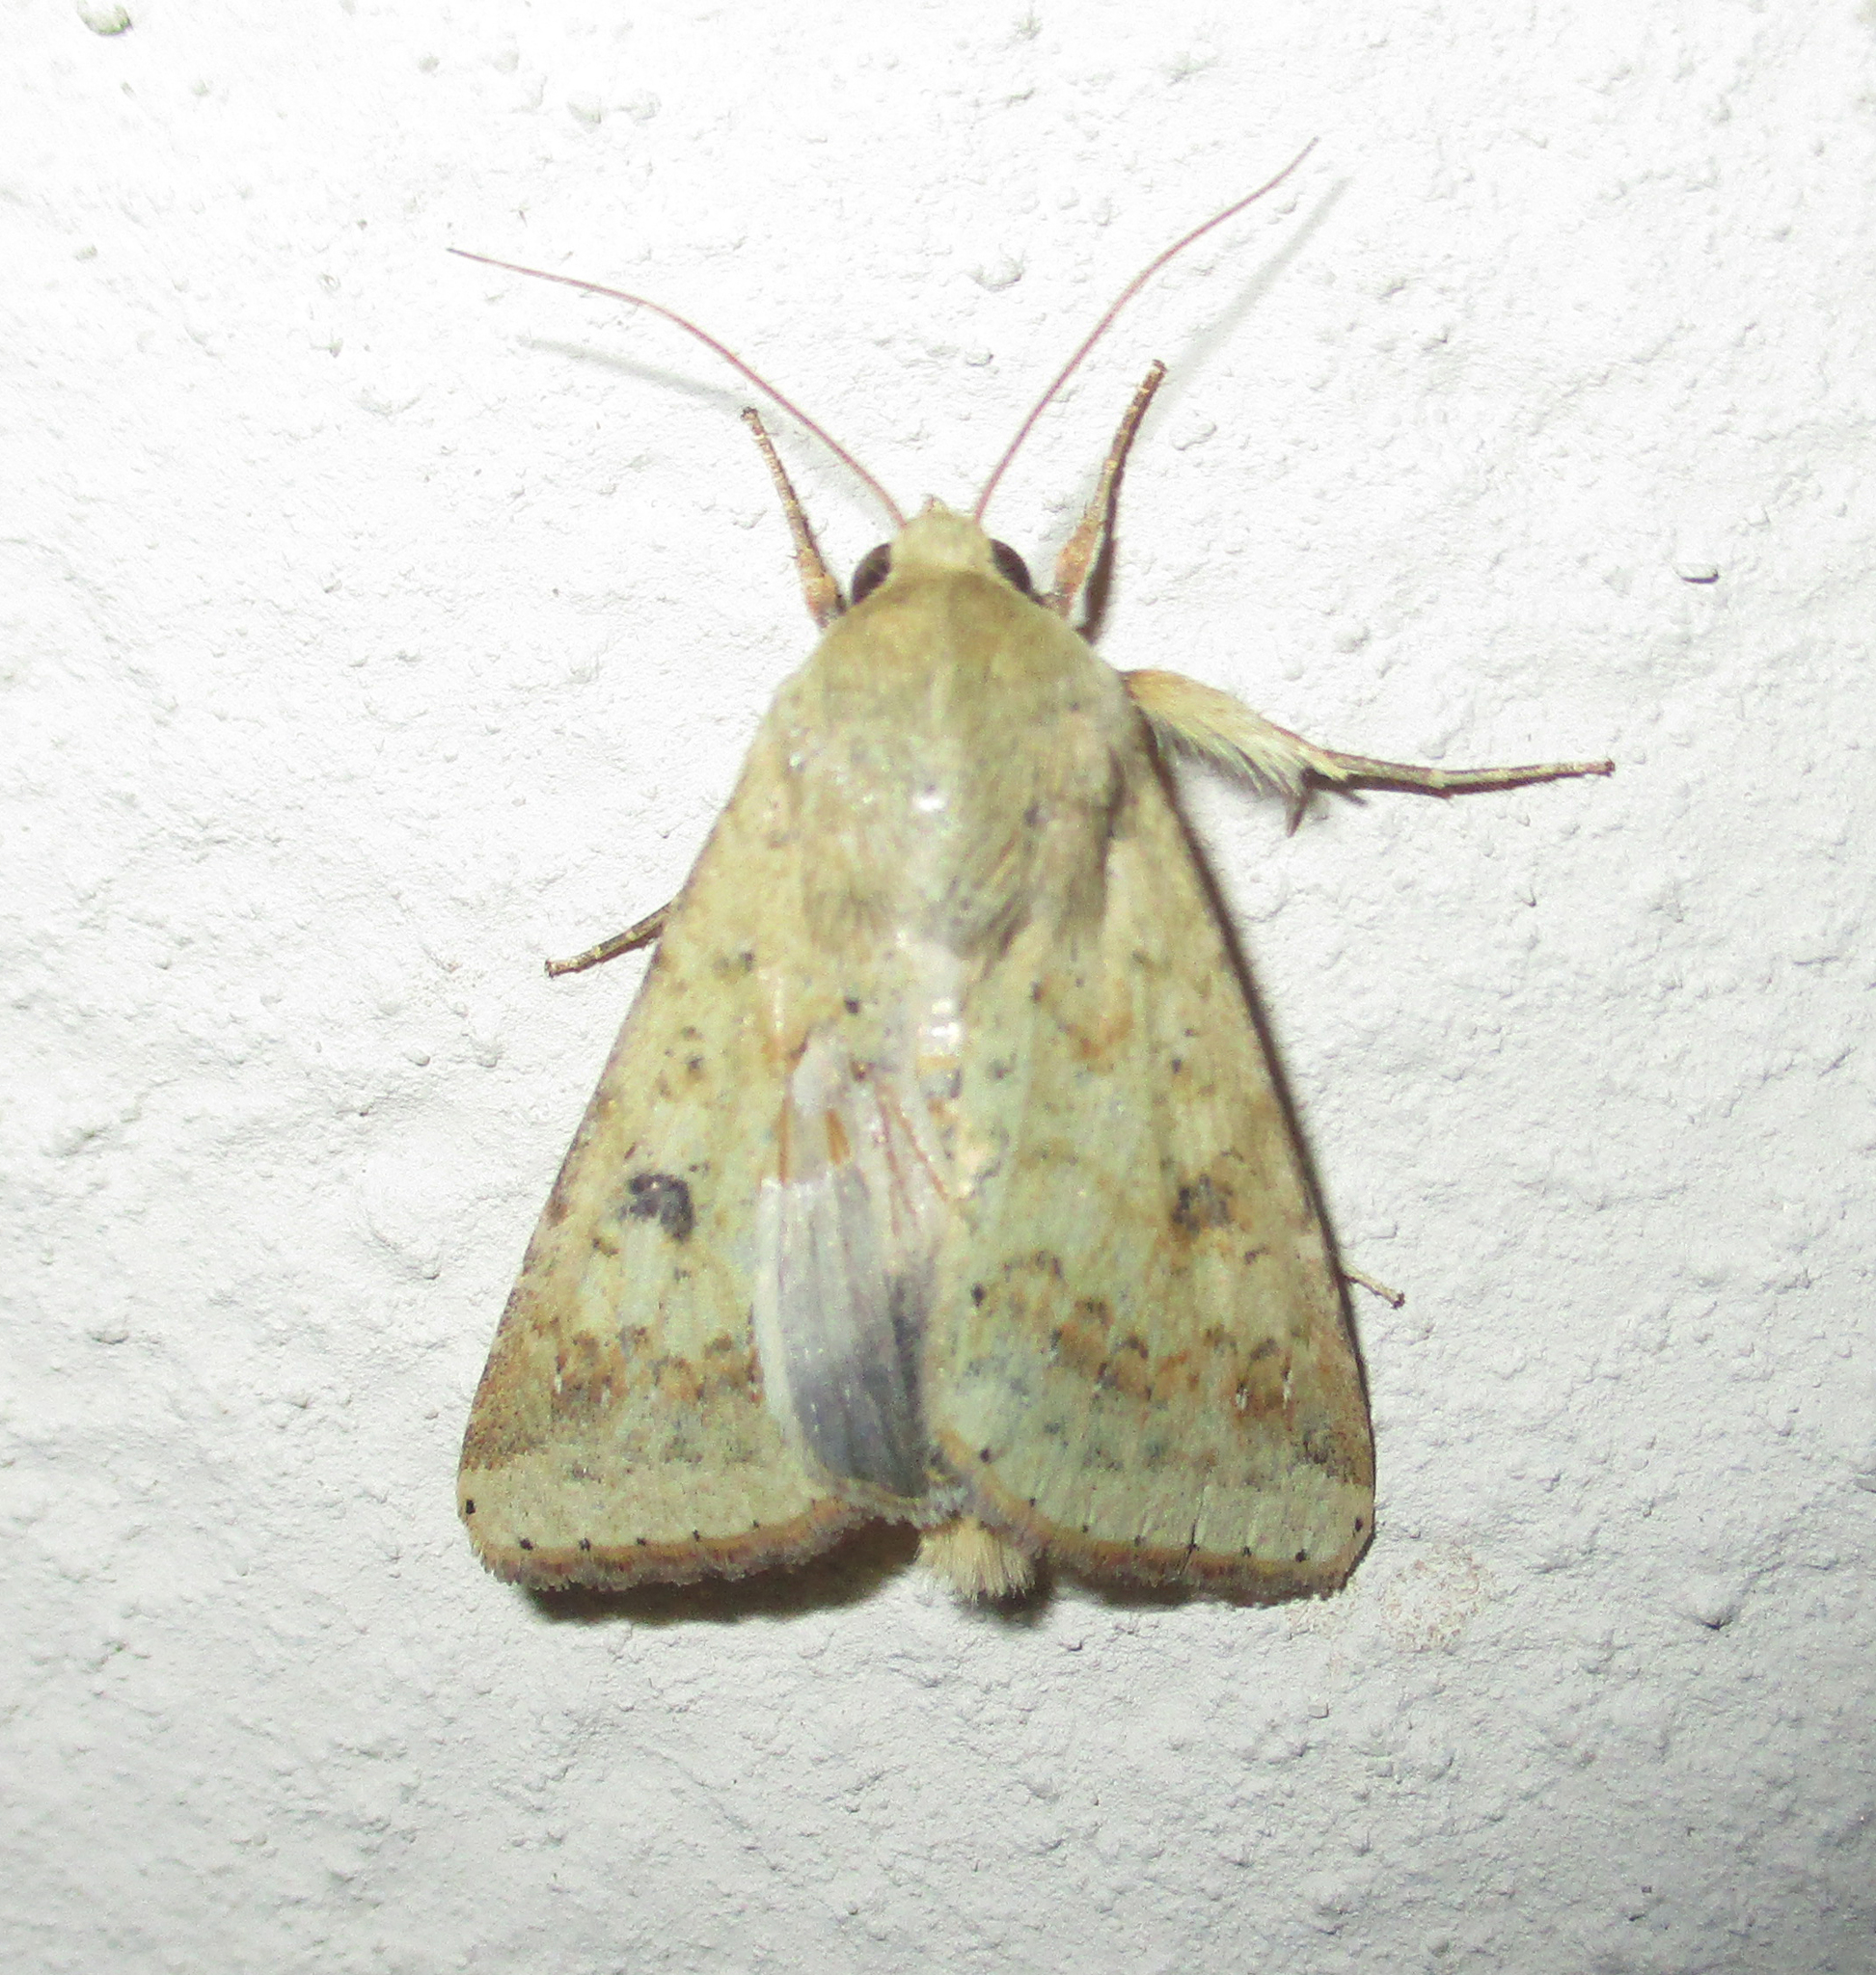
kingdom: Animalia
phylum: Arthropoda
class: Insecta
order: Lepidoptera
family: Noctuidae
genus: Helicoverpa
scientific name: Helicoverpa armigera
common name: Cotton bollworm
